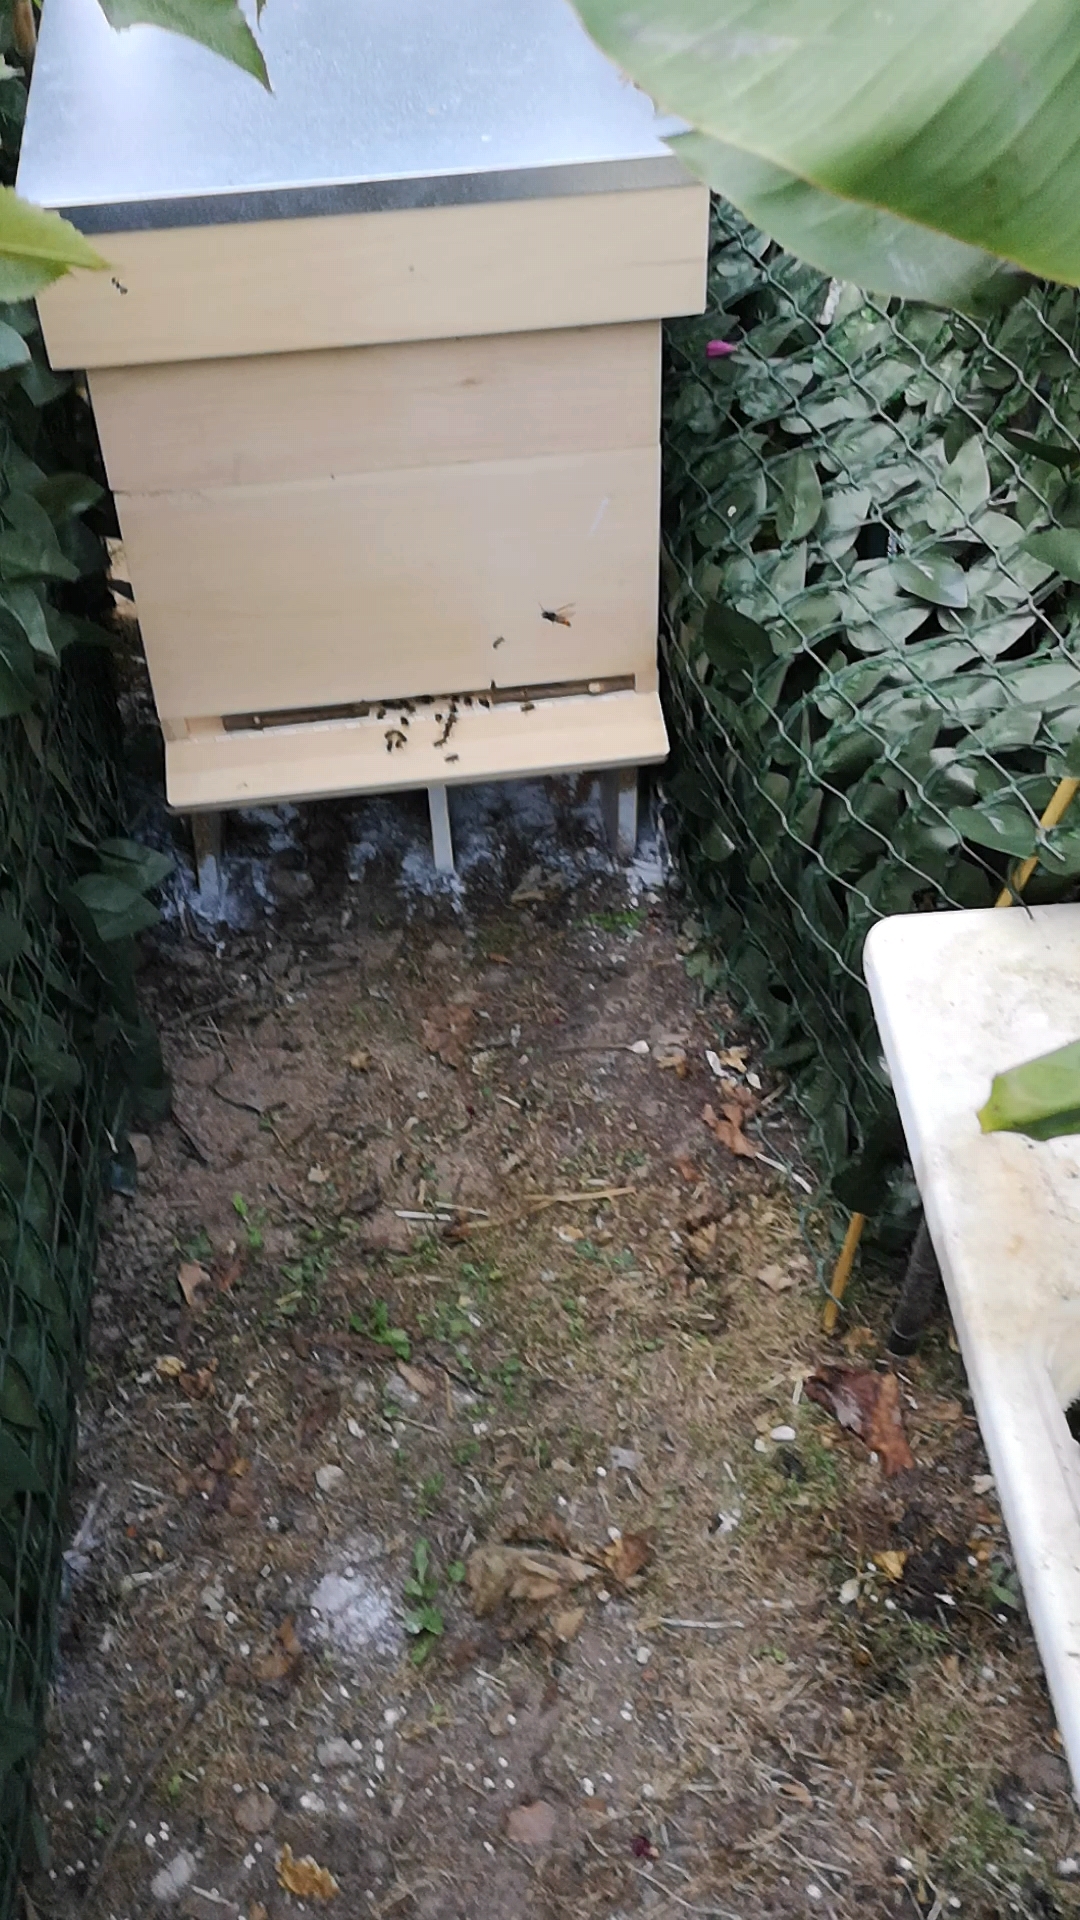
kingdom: Animalia
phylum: Arthropoda
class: Insecta
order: Hymenoptera
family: Vespidae
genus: Vespa
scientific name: Vespa velutina
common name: Asian hornet
